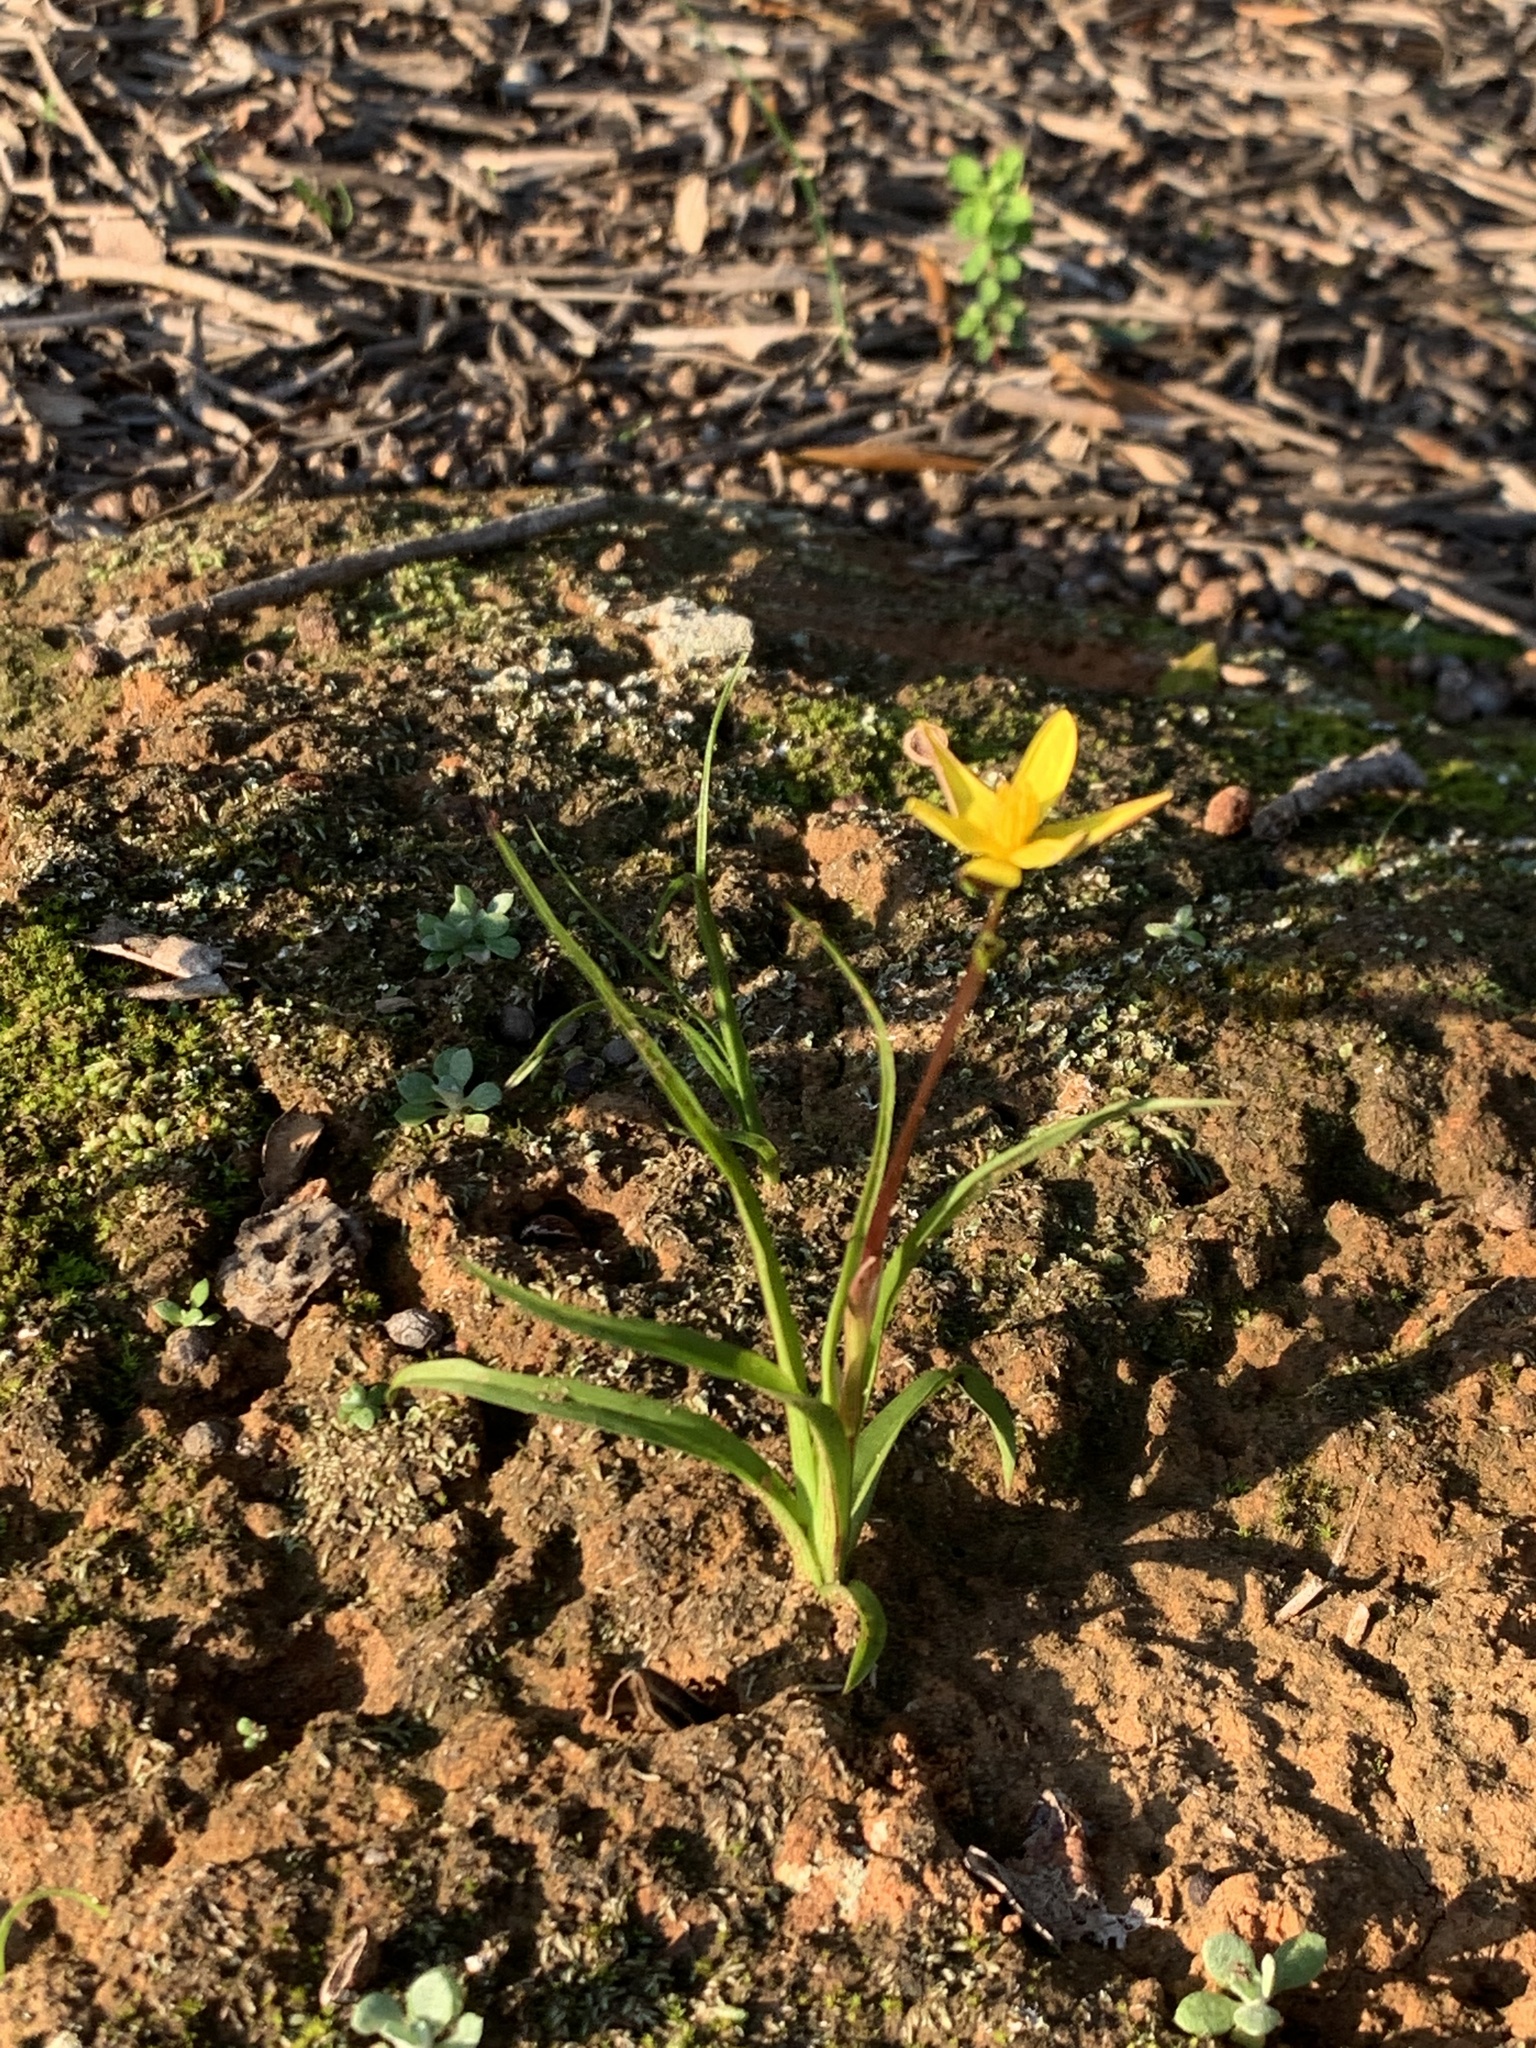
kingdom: Plantae
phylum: Tracheophyta
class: Liliopsida
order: Asparagales
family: Hypoxidaceae
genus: Pauridia
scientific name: Pauridia flaccida
